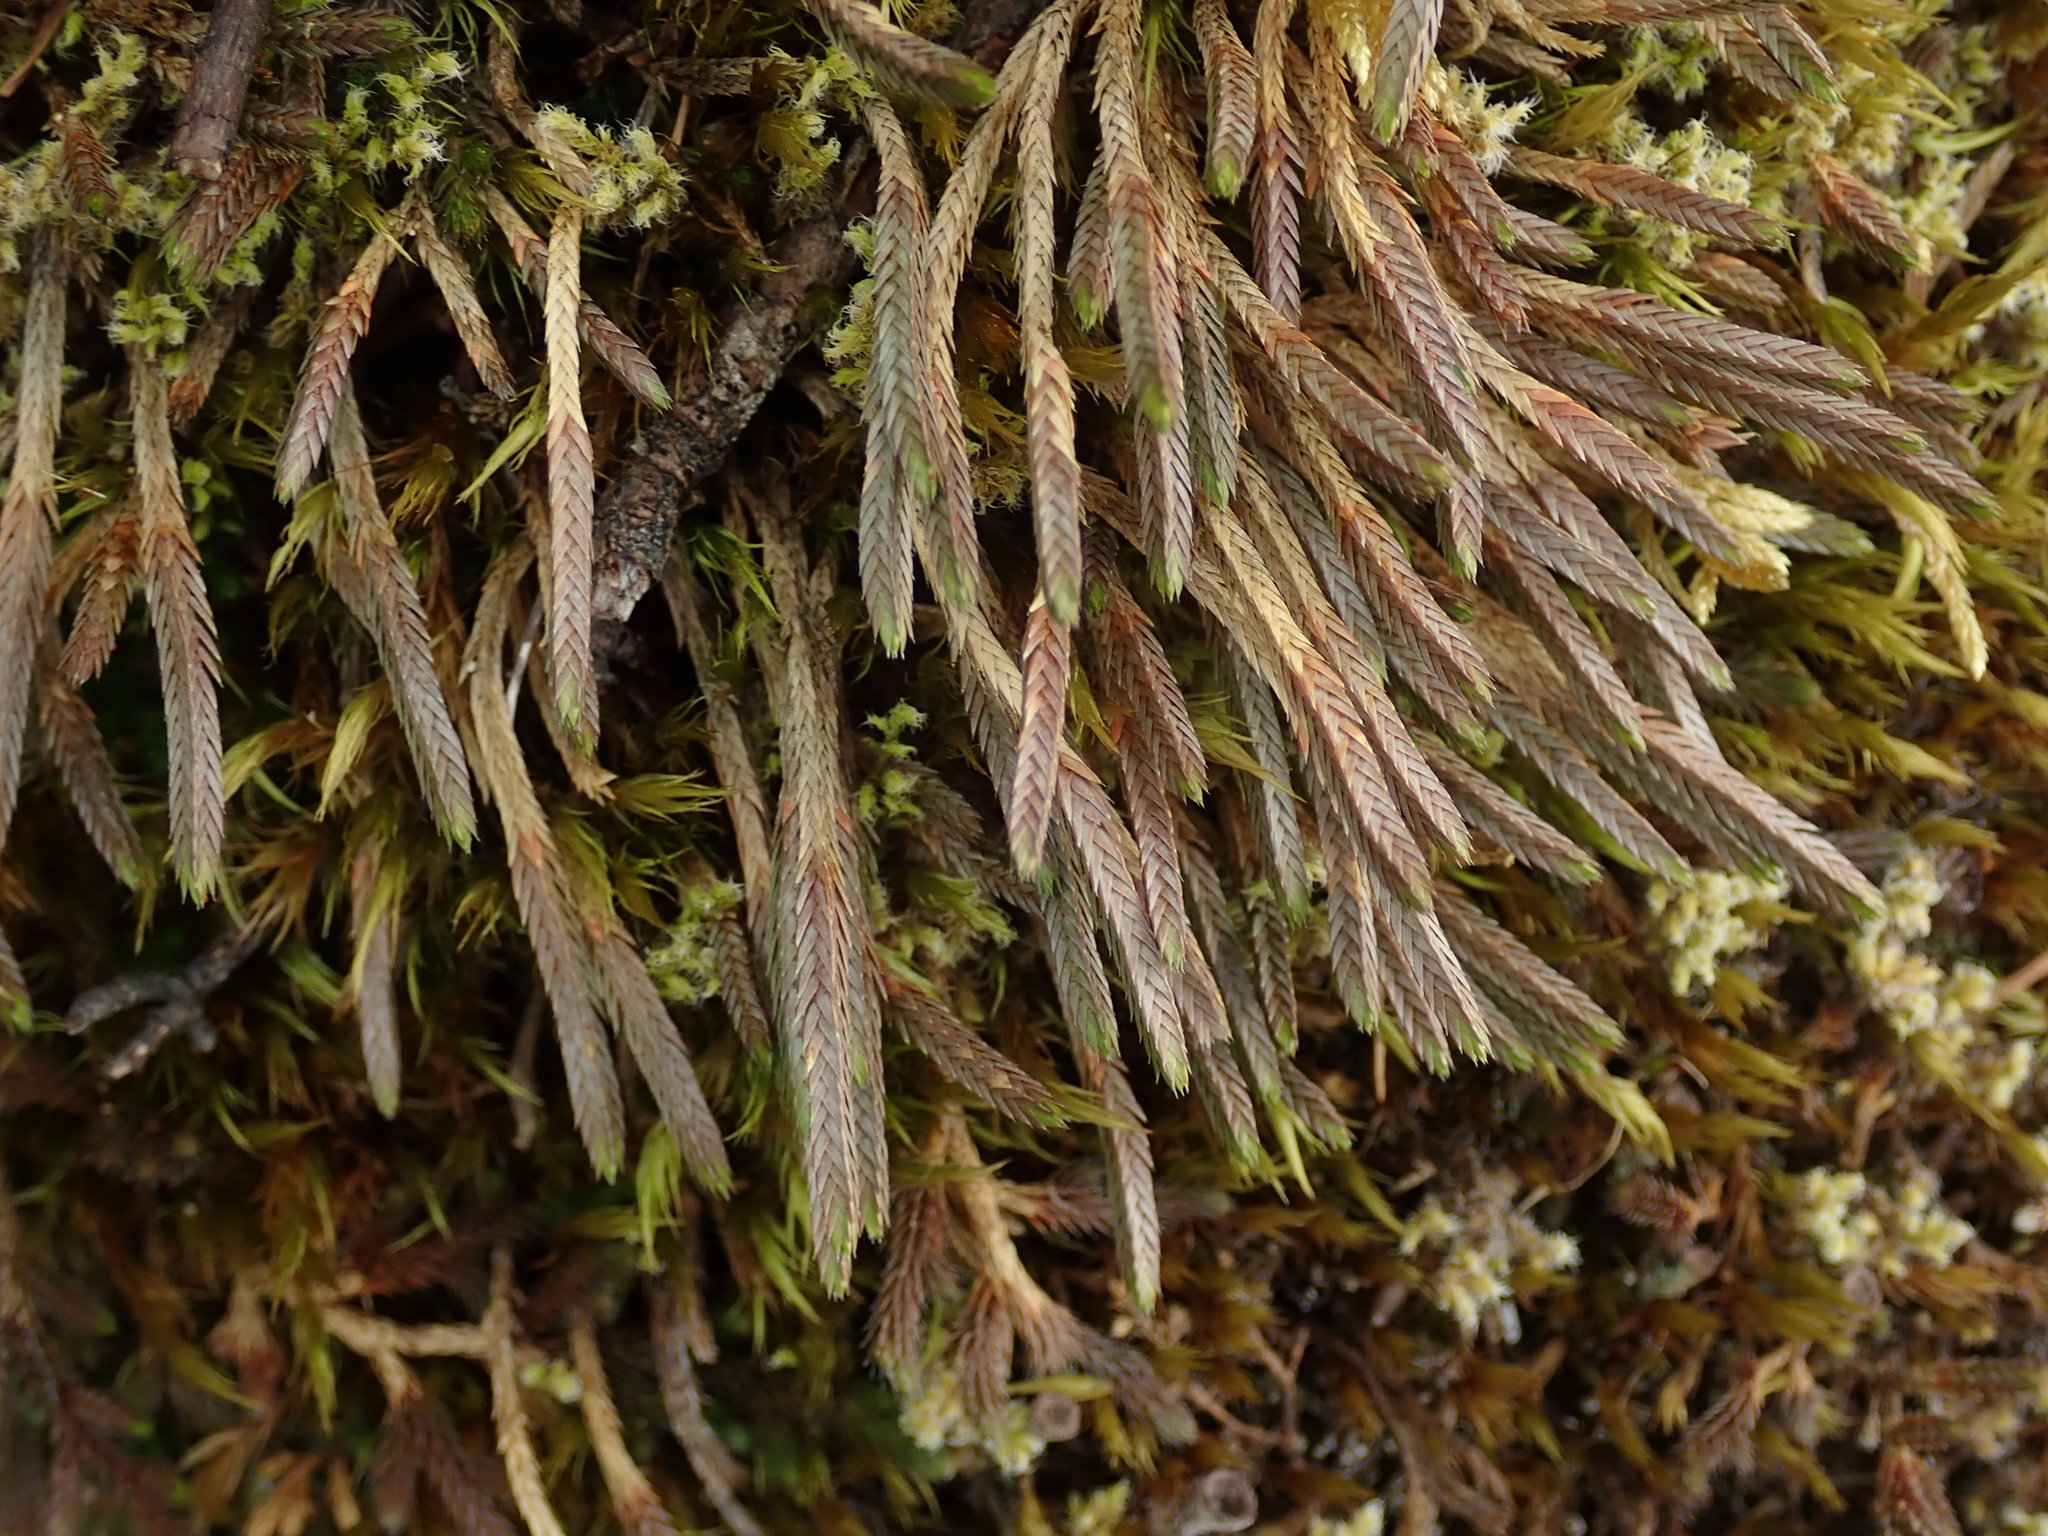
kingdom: Plantae
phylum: Tracheophyta
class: Lycopodiopsida
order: Selaginellales
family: Selaginellaceae
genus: Selaginella
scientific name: Selaginella wallacei
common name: Wallace's selaginella
